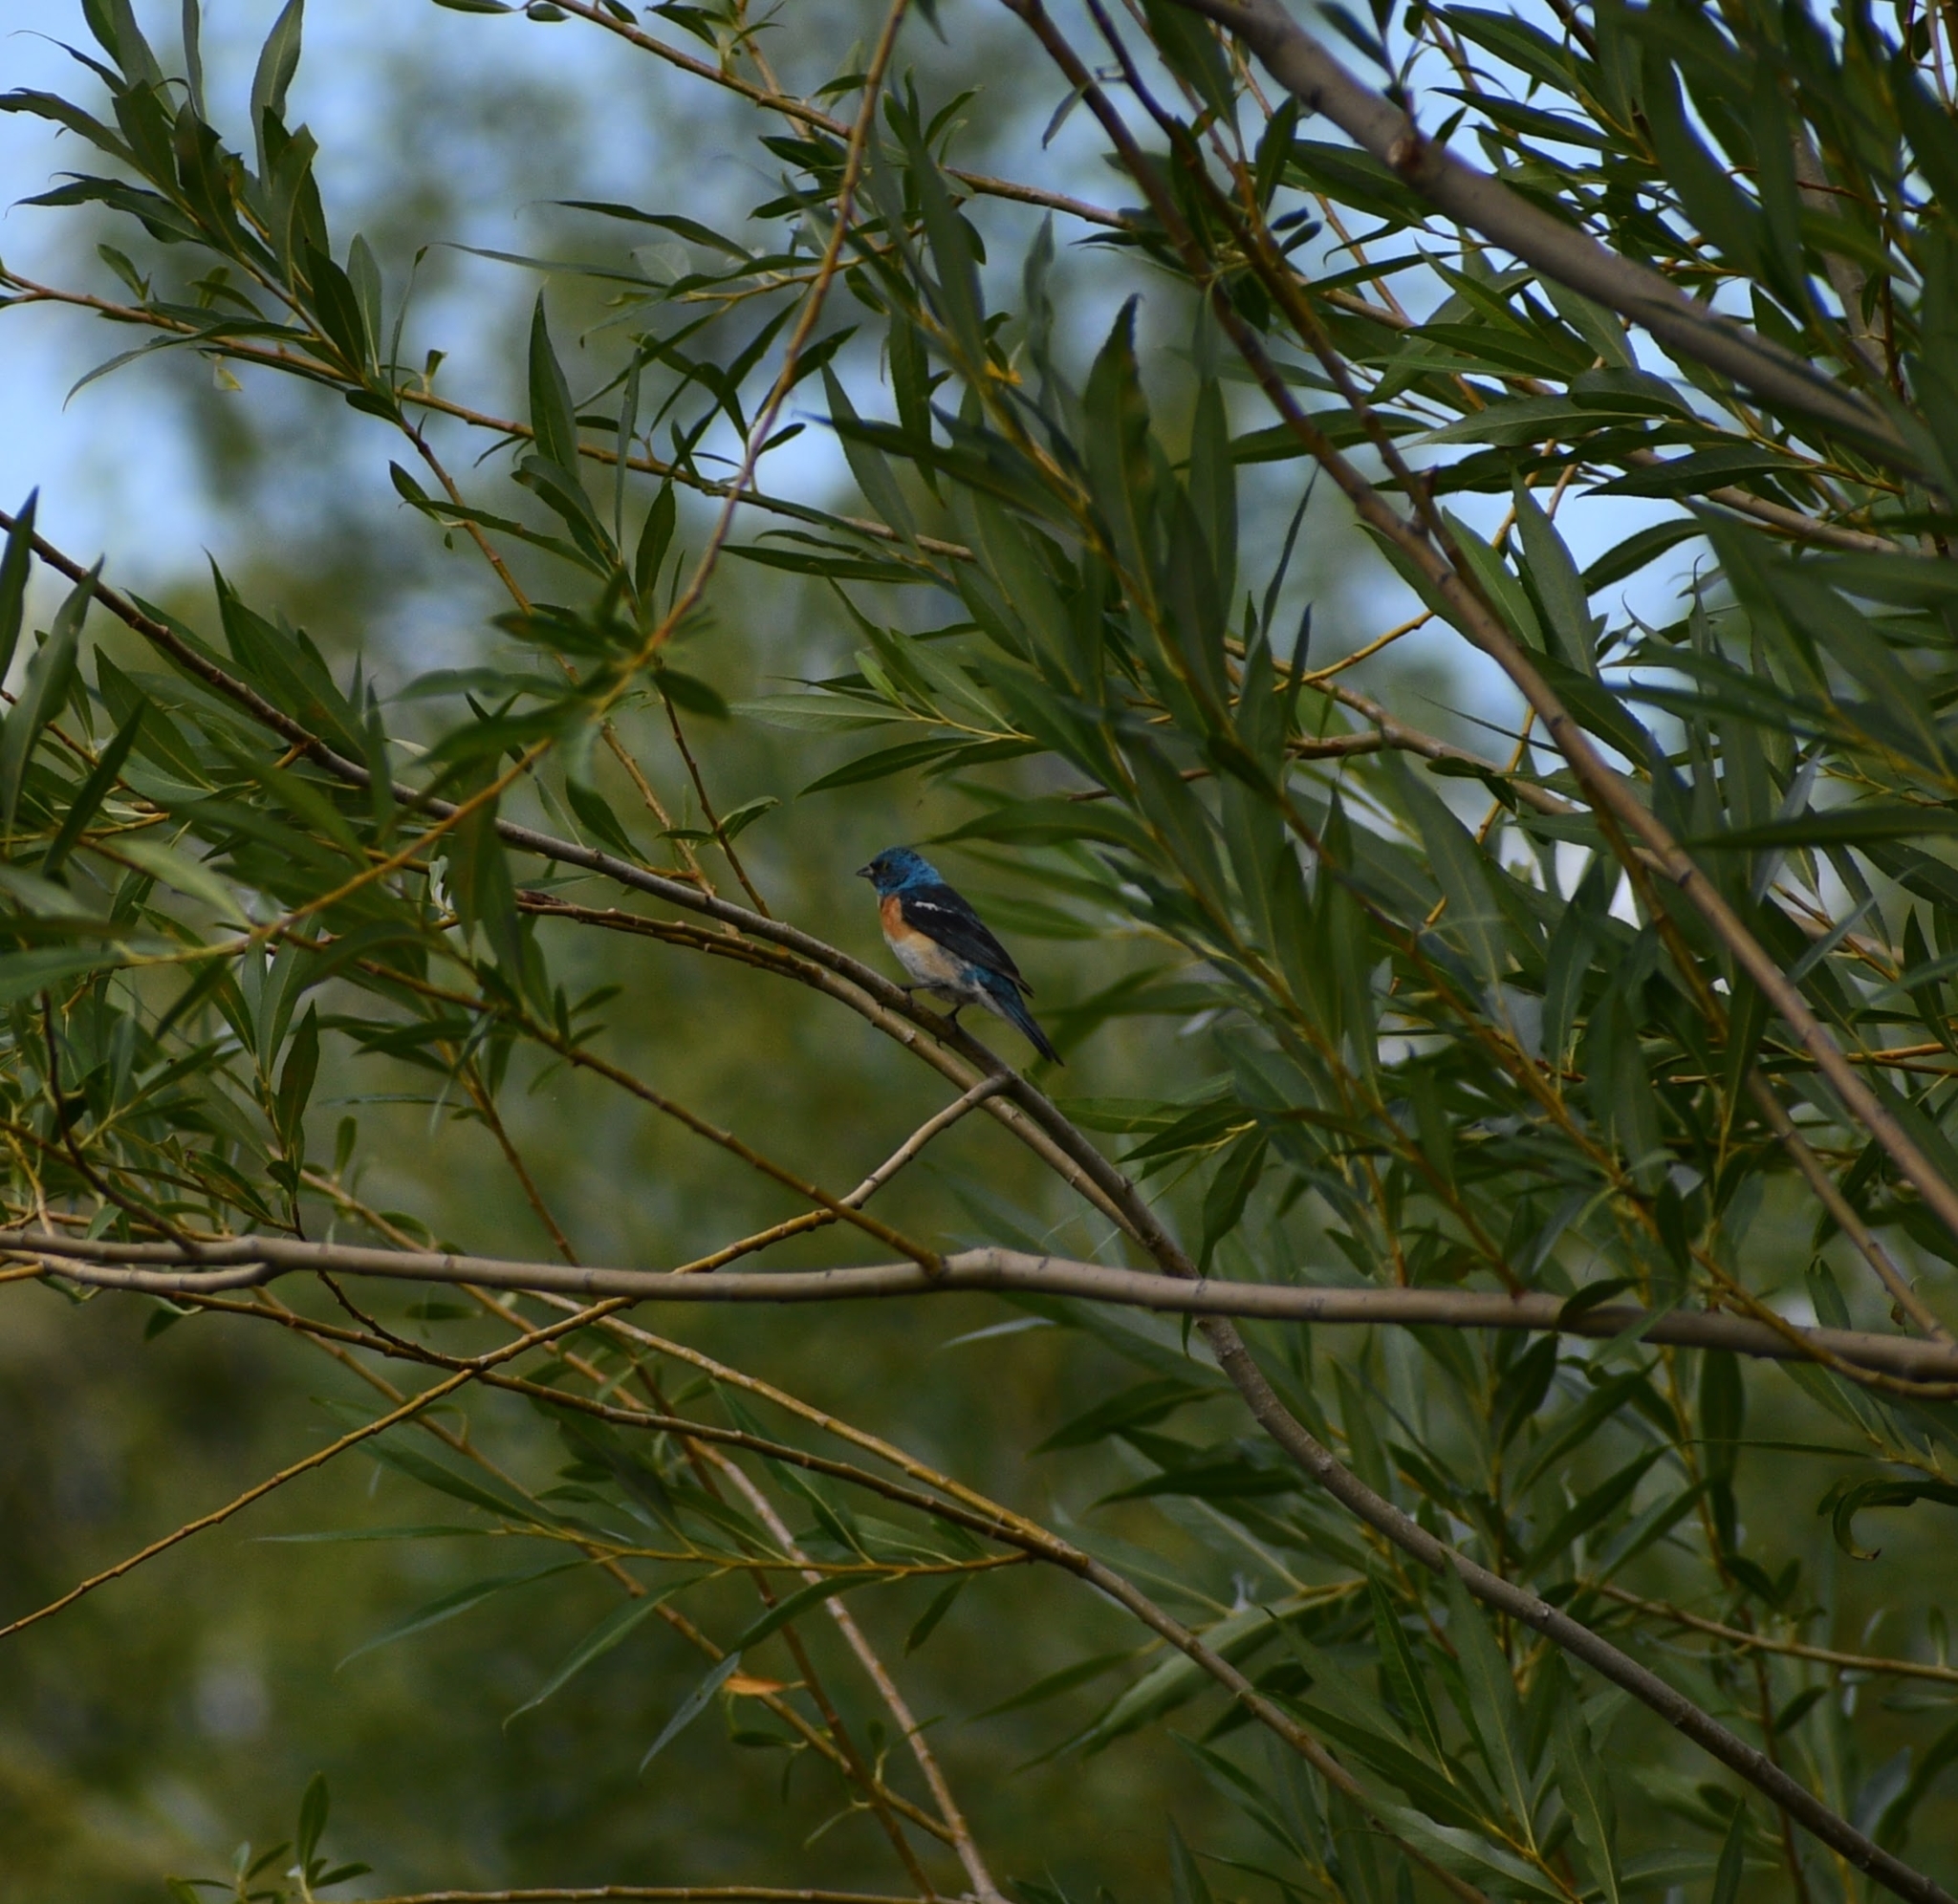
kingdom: Animalia
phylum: Chordata
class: Aves
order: Passeriformes
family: Cardinalidae
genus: Passerina
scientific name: Passerina amoena
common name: Lazuli bunting
